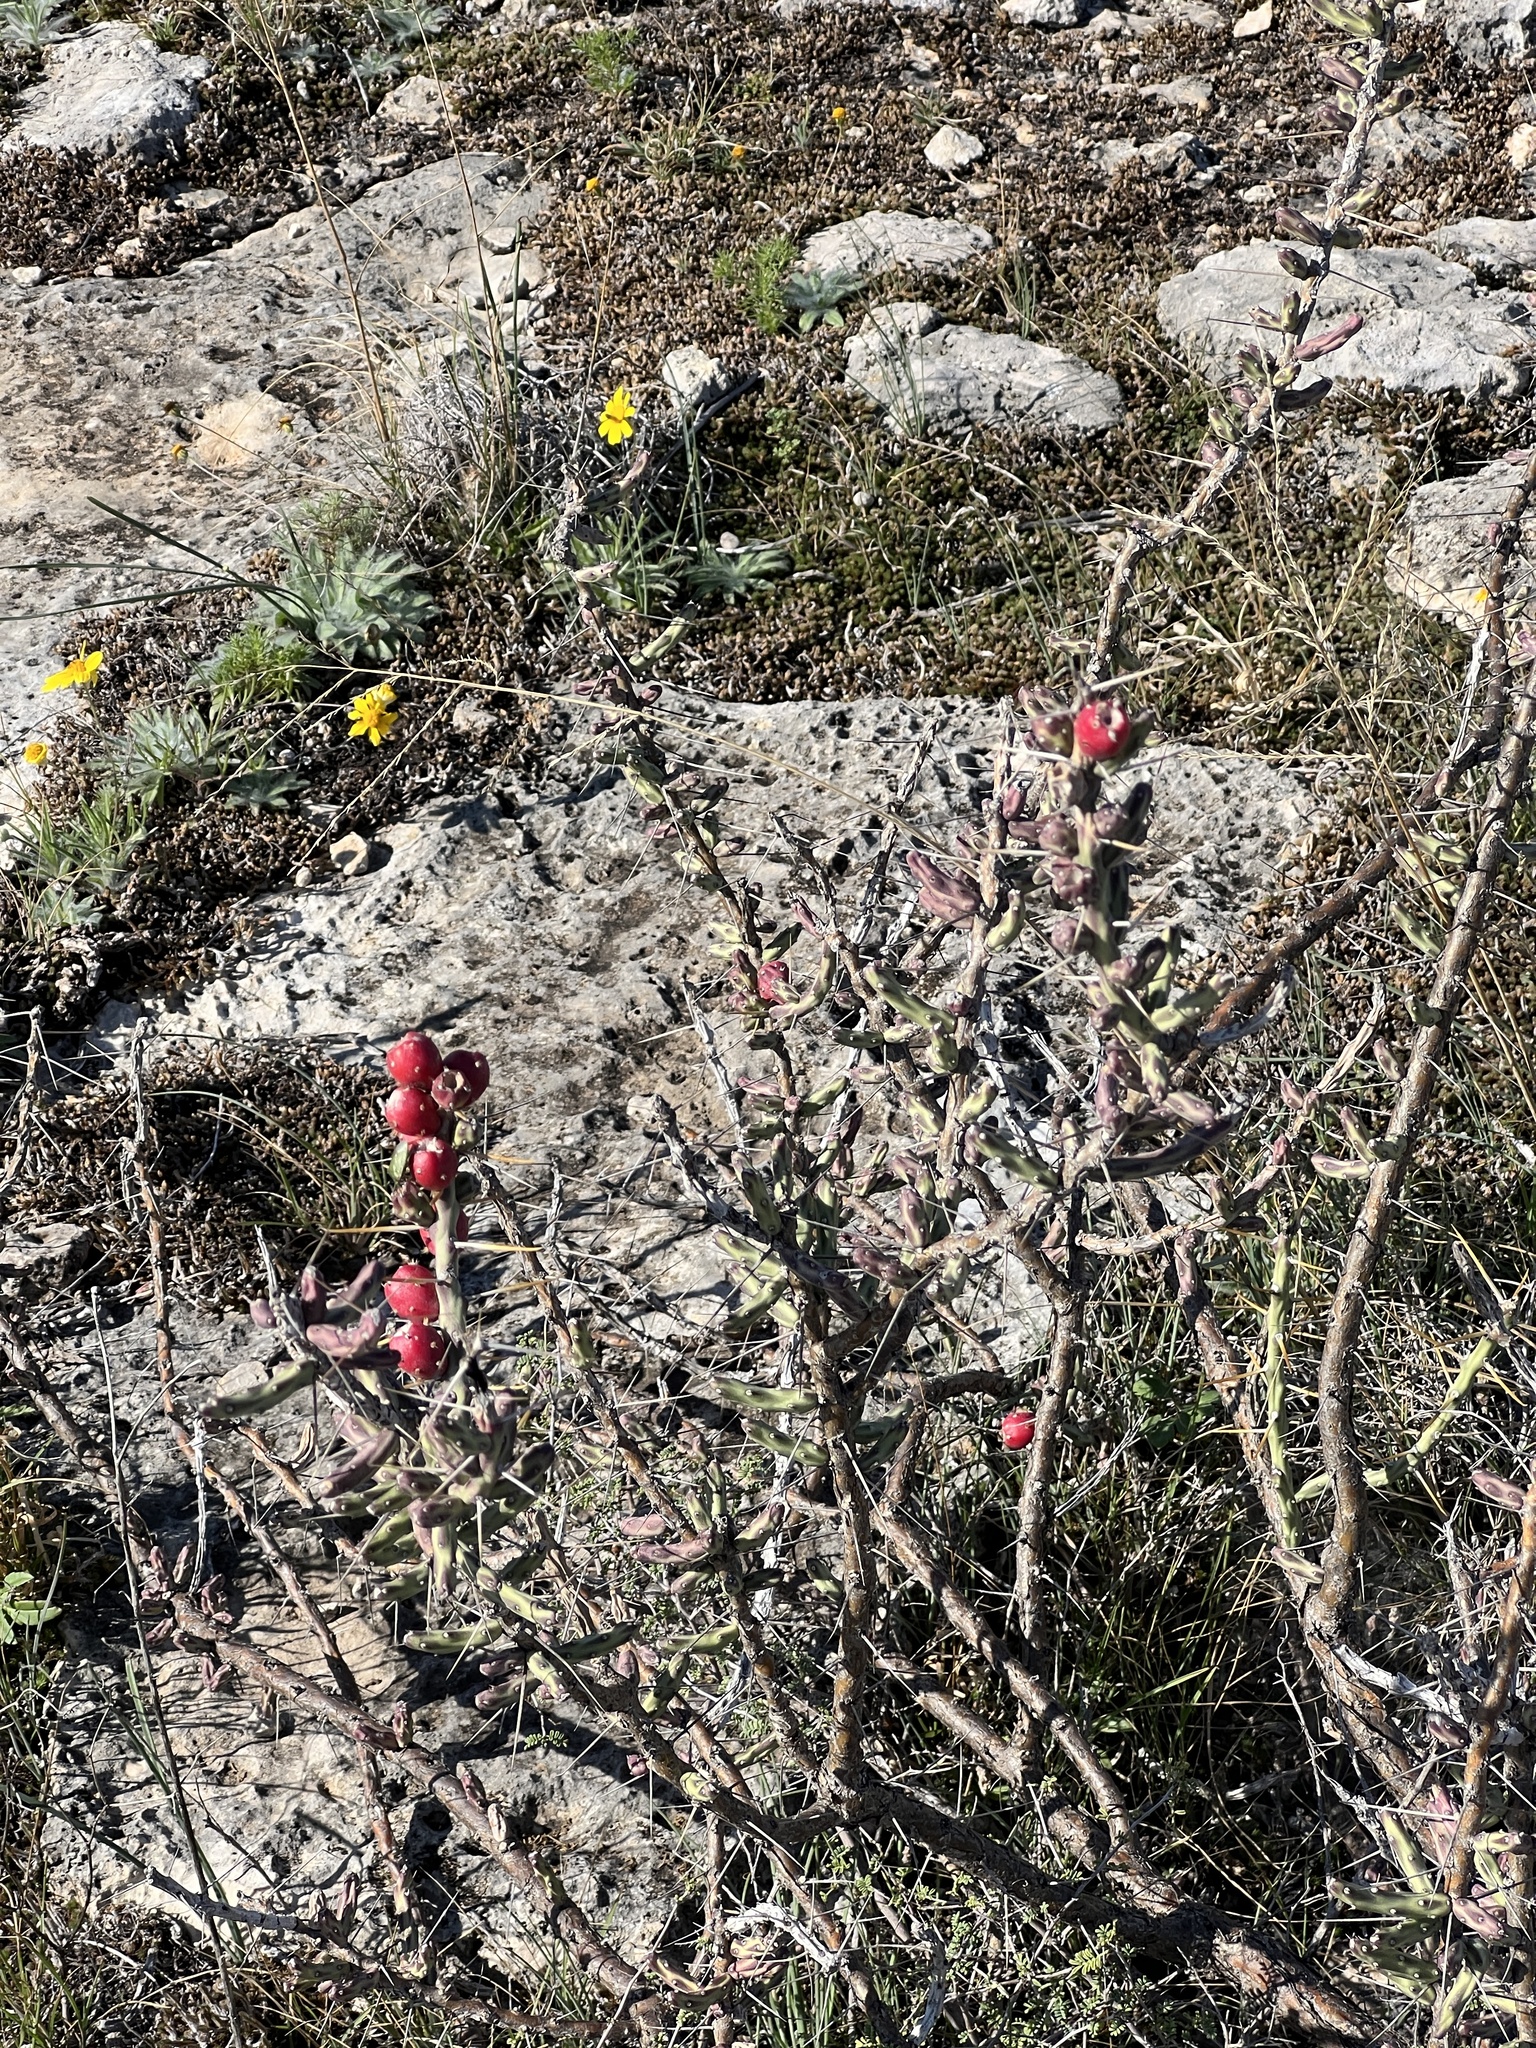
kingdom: Plantae
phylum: Tracheophyta
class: Magnoliopsida
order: Caryophyllales
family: Cactaceae
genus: Cylindropuntia
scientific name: Cylindropuntia leptocaulis
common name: Christmas cactus
